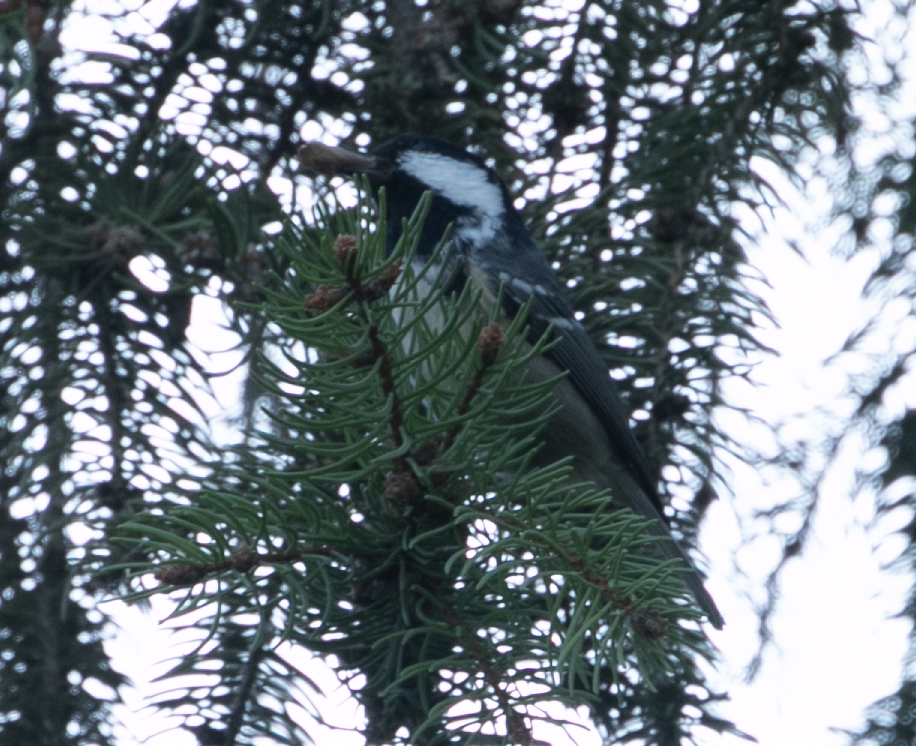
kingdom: Animalia
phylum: Chordata
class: Aves
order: Passeriformes
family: Paridae
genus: Periparus
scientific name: Periparus ater
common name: Coal tit
